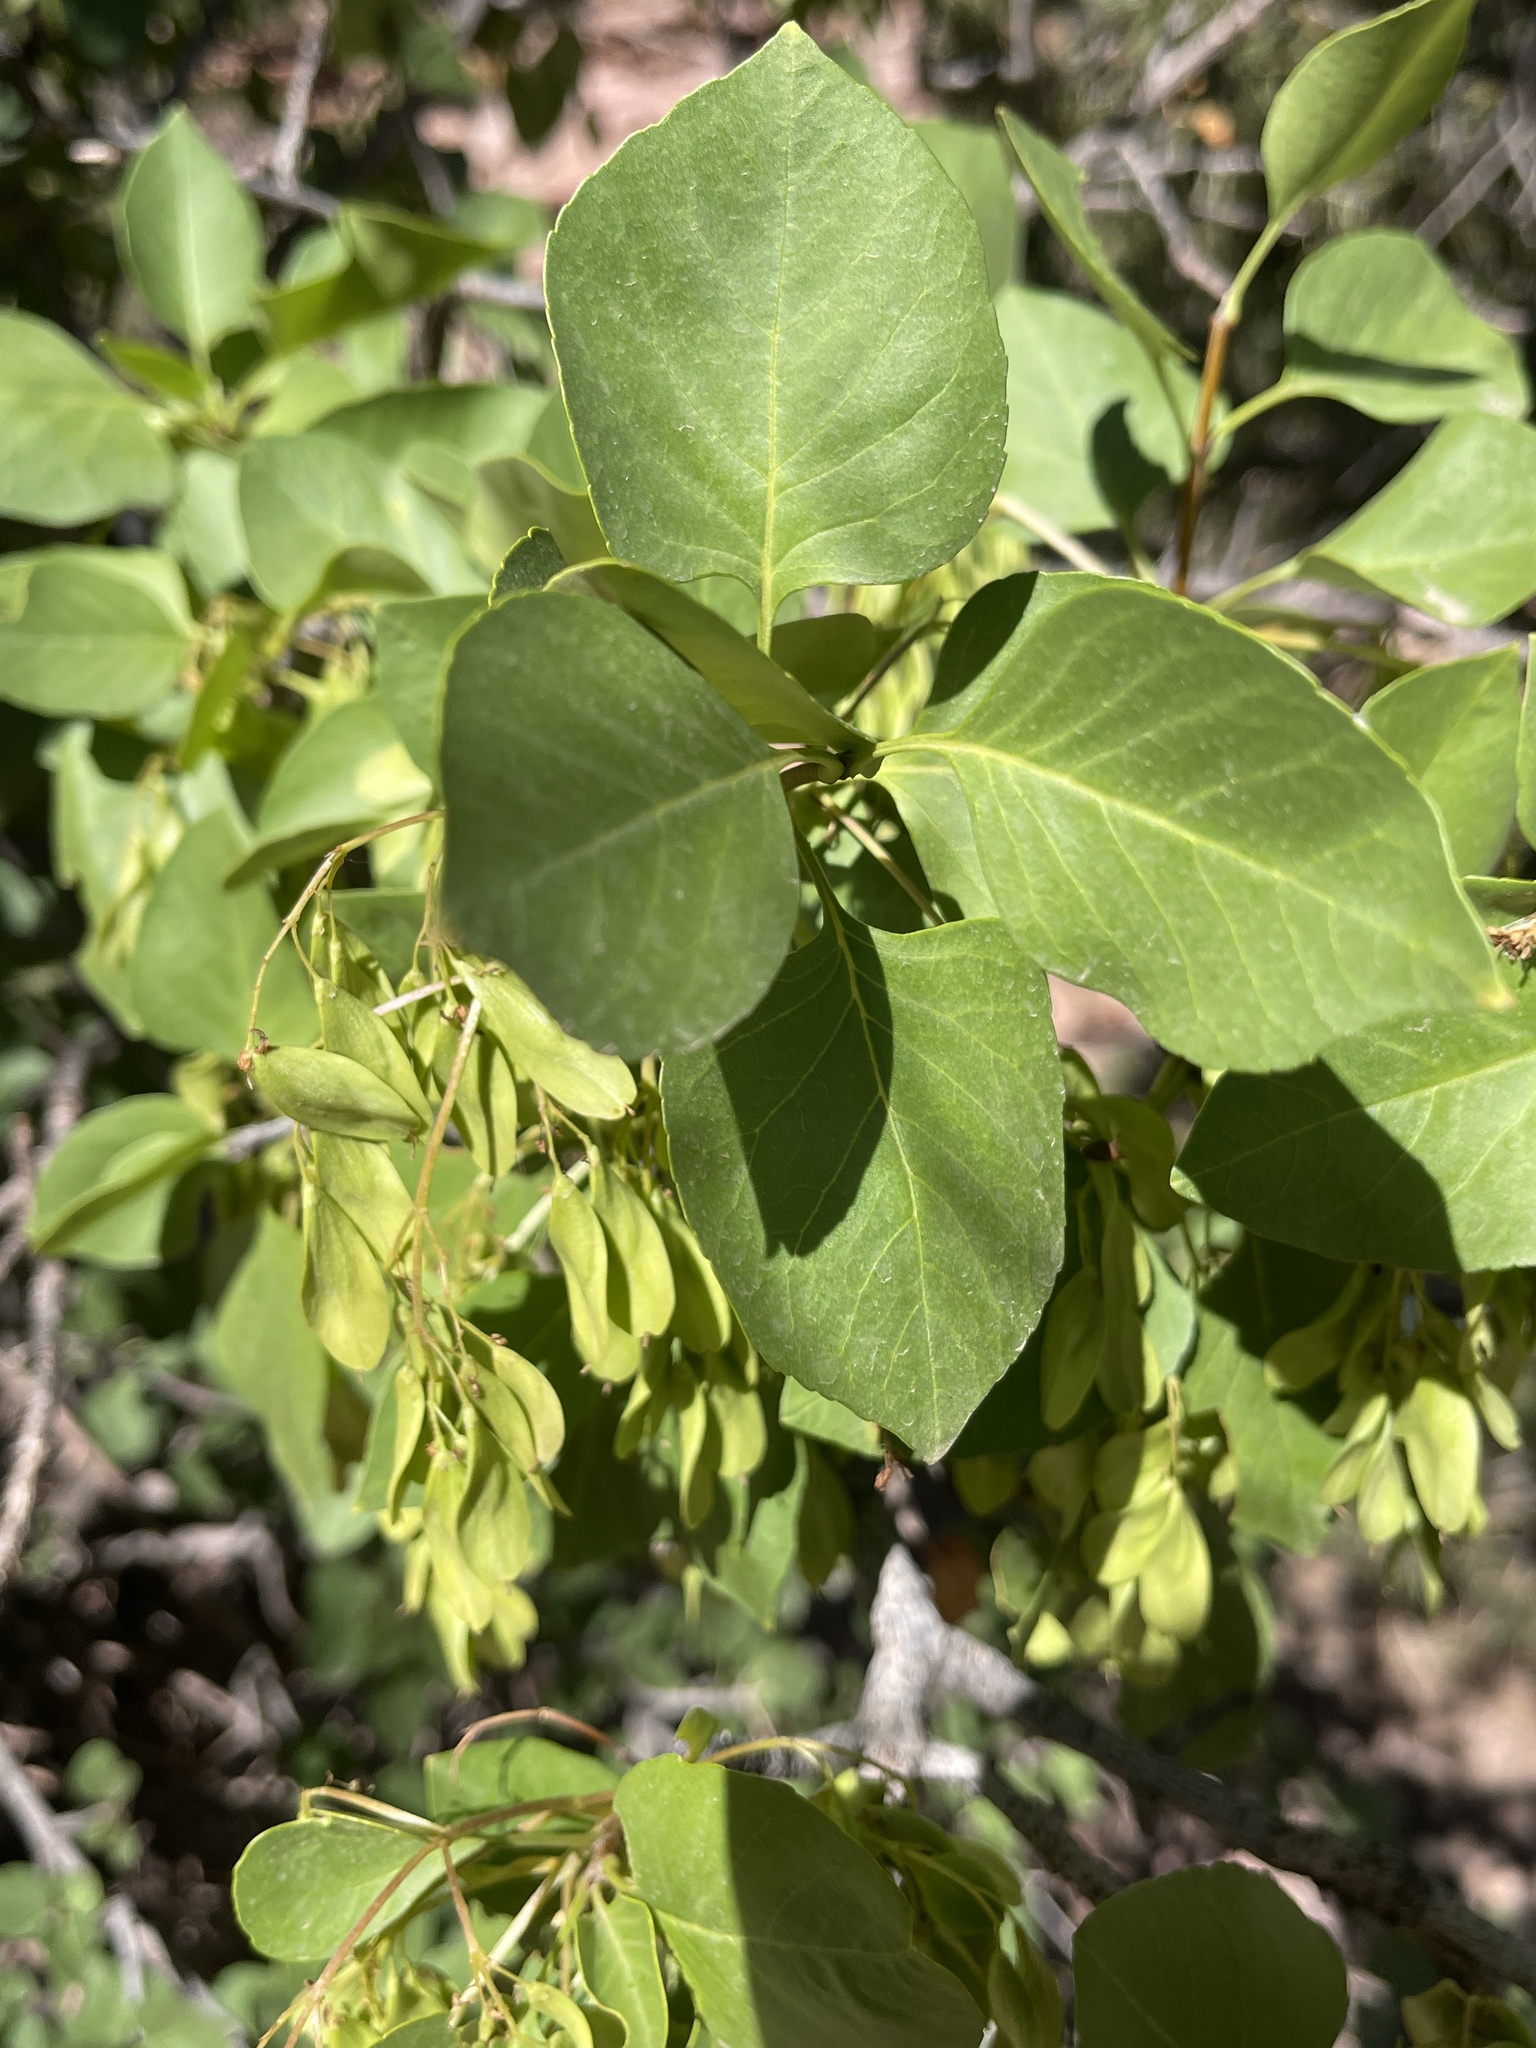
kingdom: Plantae
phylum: Tracheophyta
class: Magnoliopsida
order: Lamiales
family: Oleaceae
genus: Fraxinus
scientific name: Fraxinus anomala
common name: Utah ash
